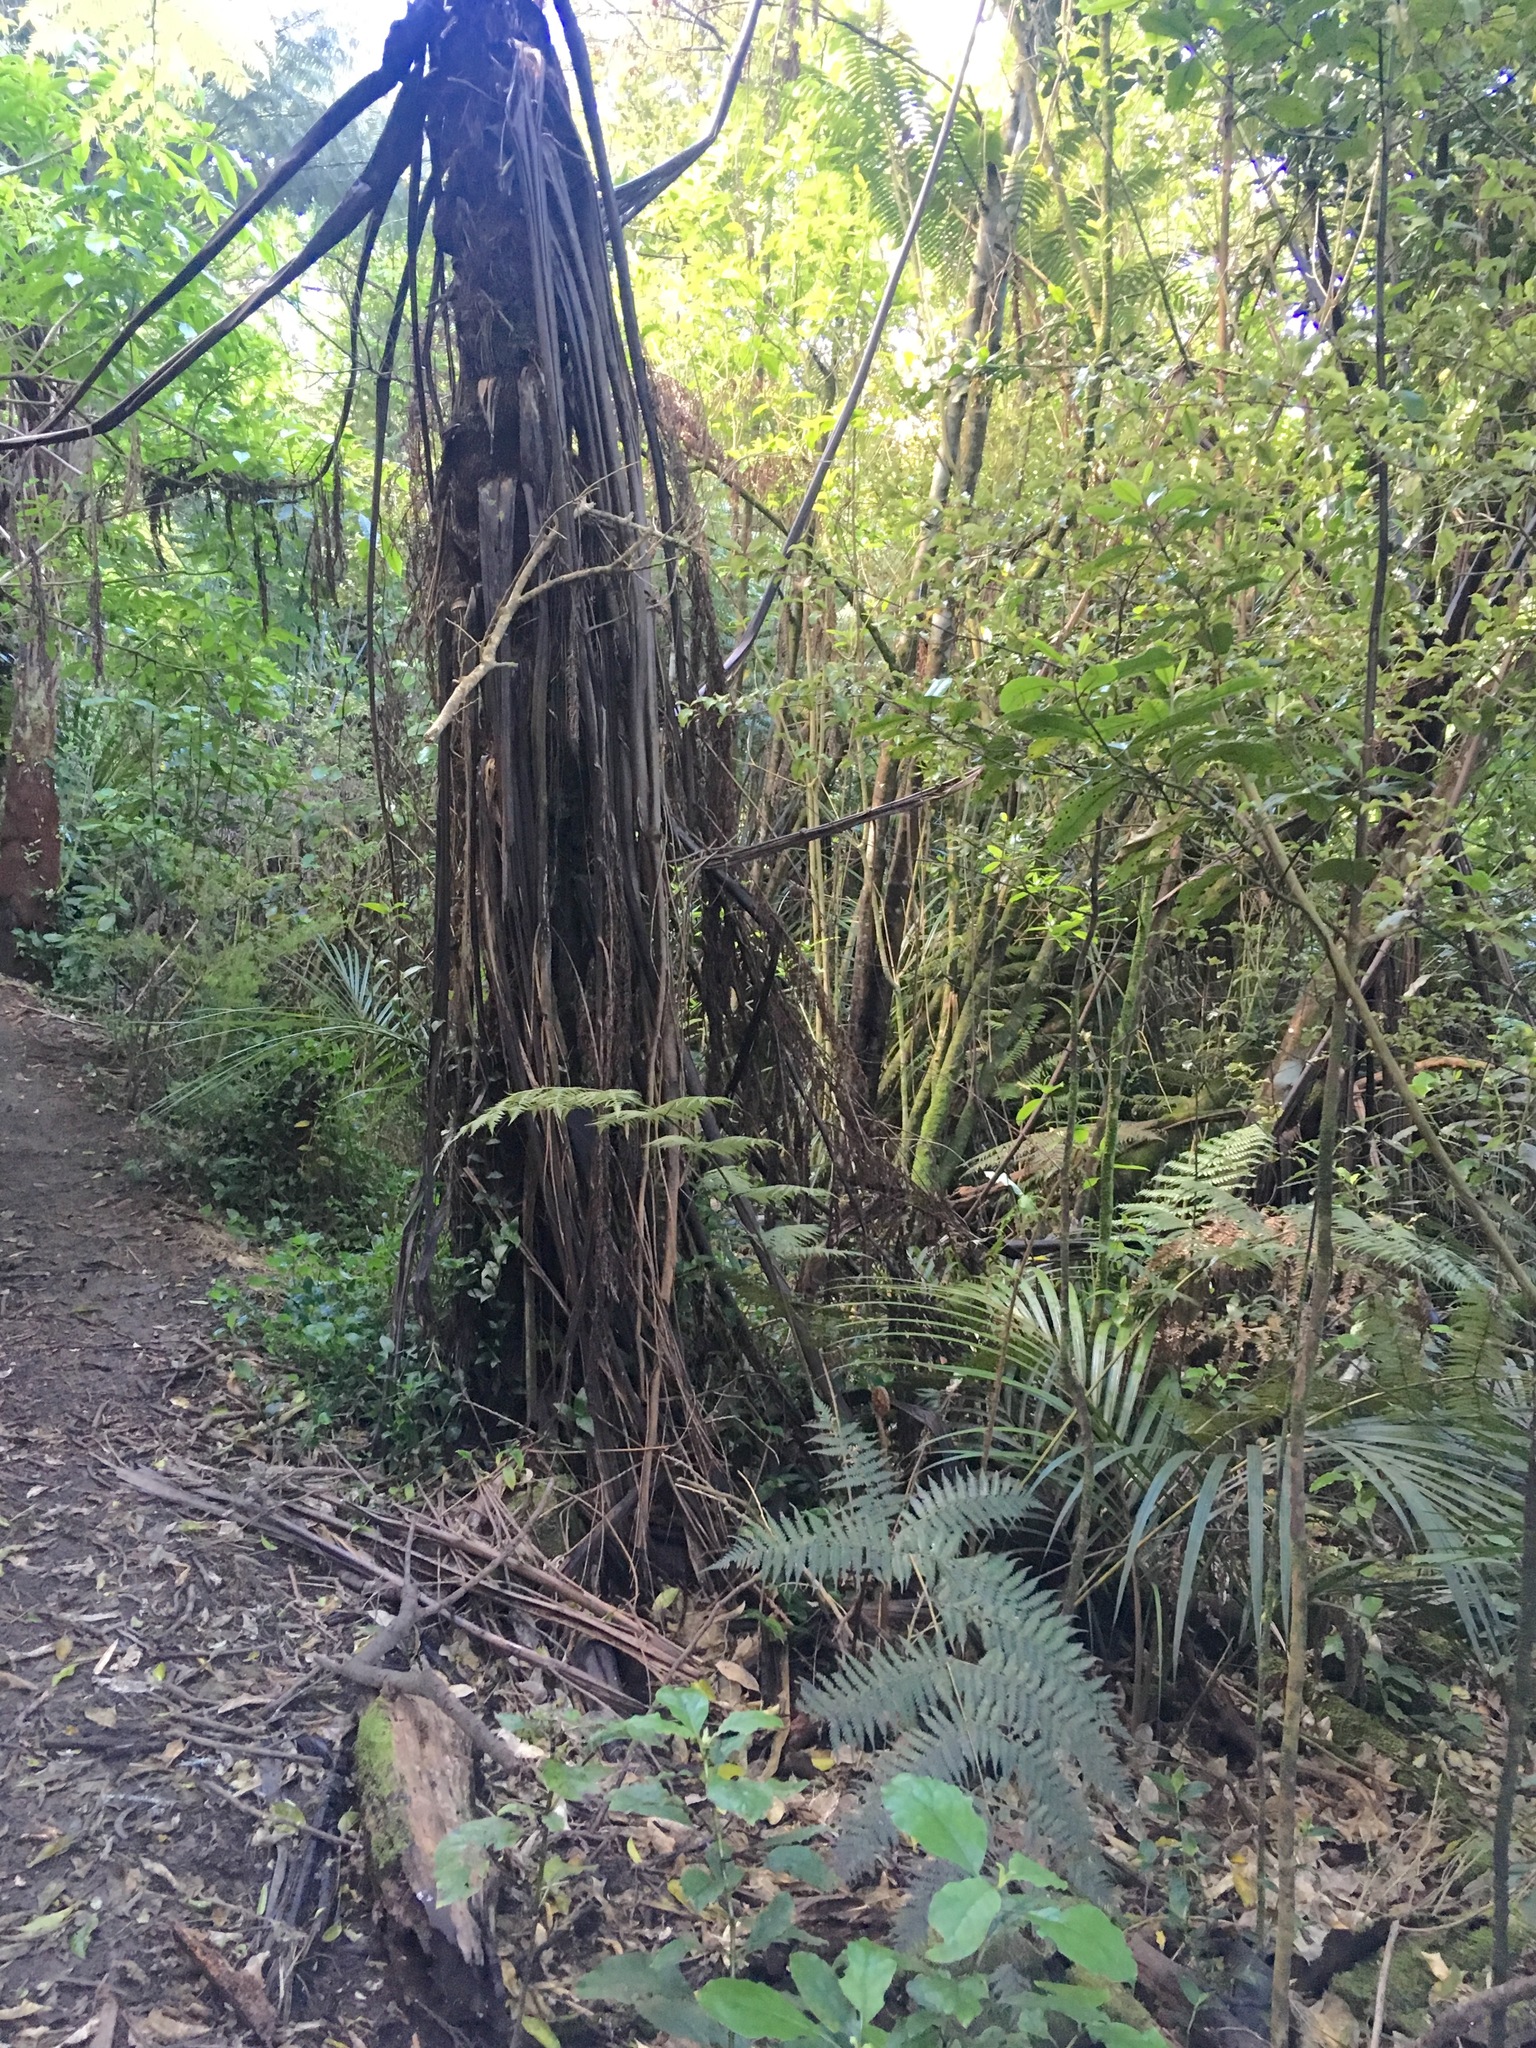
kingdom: Plantae
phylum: Tracheophyta
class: Liliopsida
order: Commelinales
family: Commelinaceae
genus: Tradescantia
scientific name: Tradescantia fluminensis
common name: Wandering-jew
